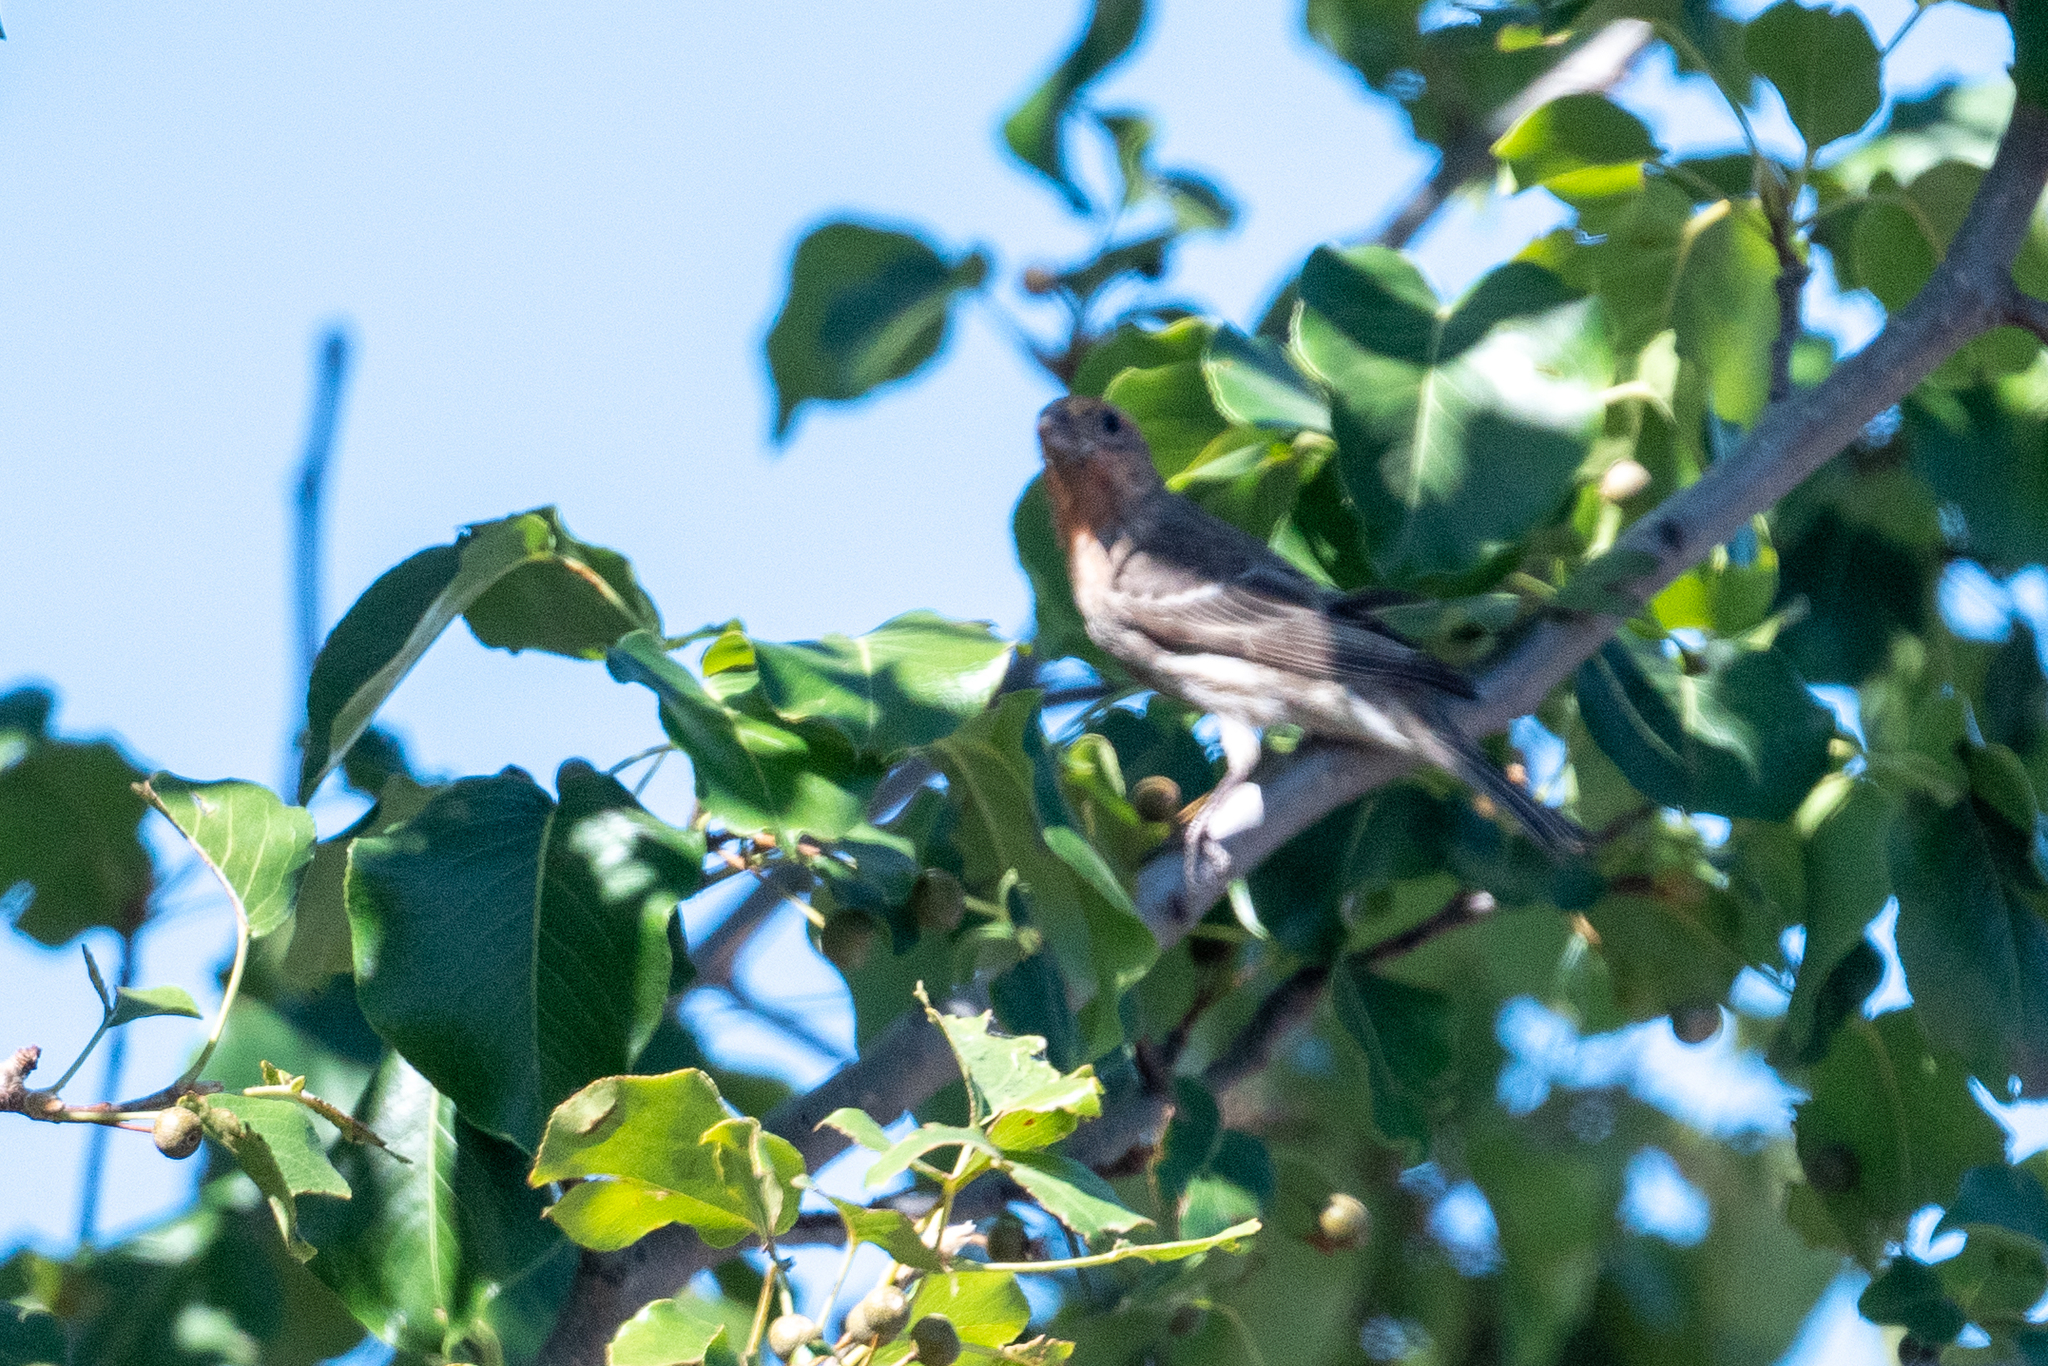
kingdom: Animalia
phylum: Chordata
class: Aves
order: Passeriformes
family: Fringillidae
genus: Haemorhous
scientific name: Haemorhous mexicanus
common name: House finch
